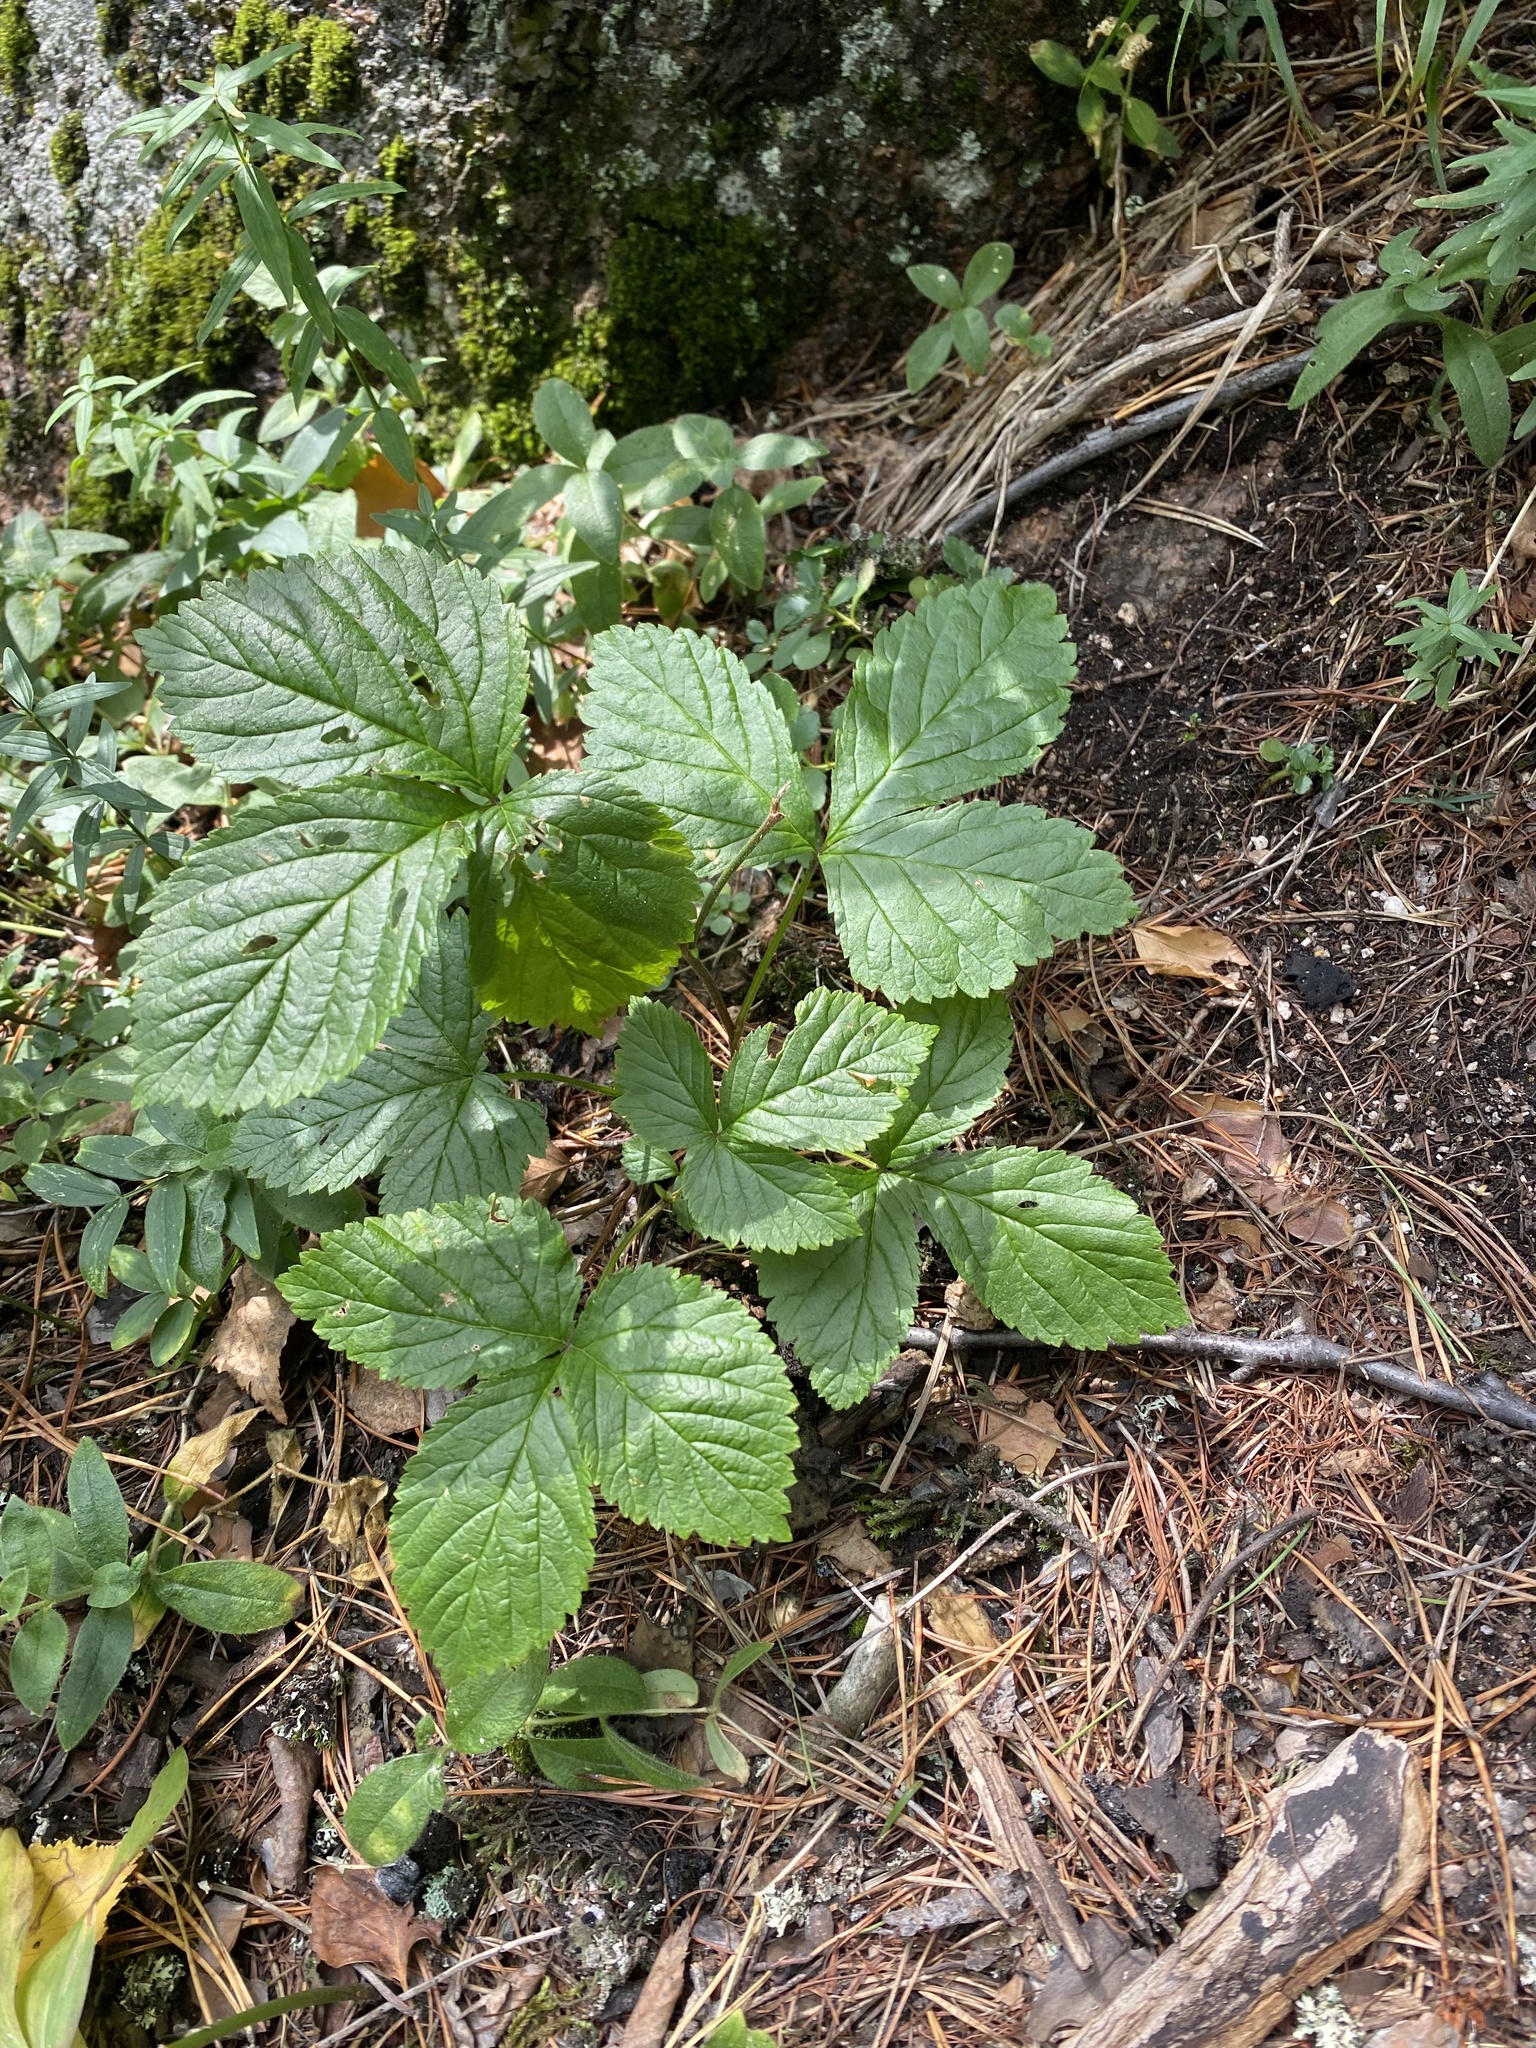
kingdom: Plantae
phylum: Tracheophyta
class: Magnoliopsida
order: Rosales
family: Rosaceae
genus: Rubus
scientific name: Rubus saxatilis
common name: Stone bramble
